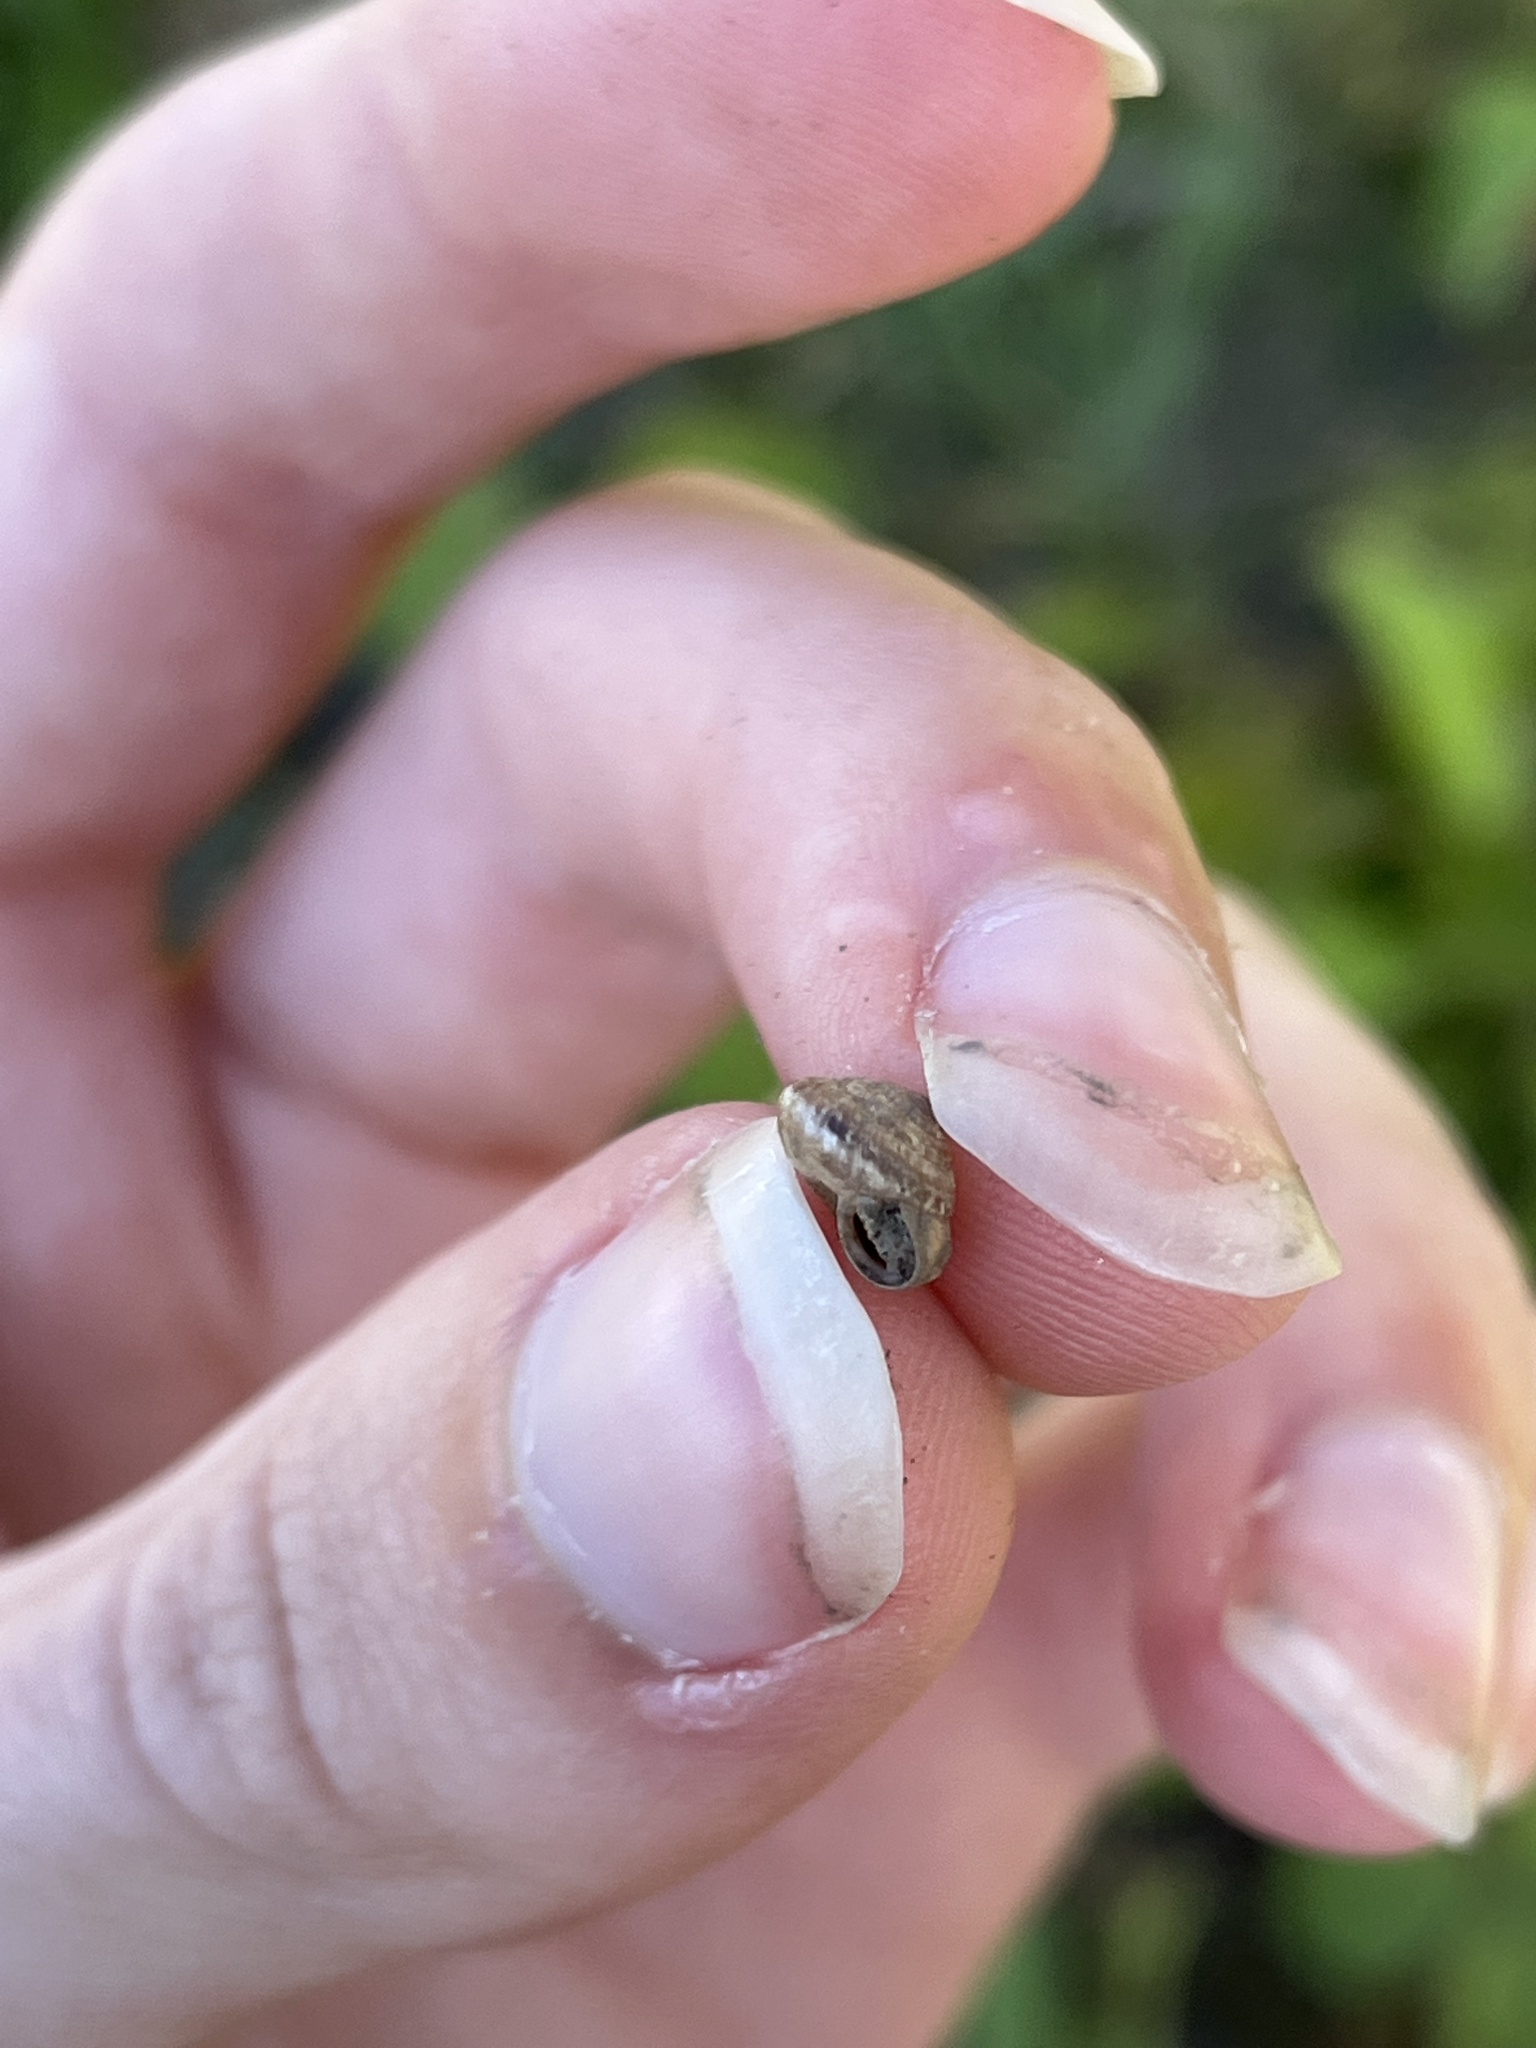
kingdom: Animalia
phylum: Mollusca
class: Gastropoda
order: Stylommatophora
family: Geomitridae
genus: Xeroplexa
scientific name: Xeroplexa intersecta
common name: Wrinkled snail
